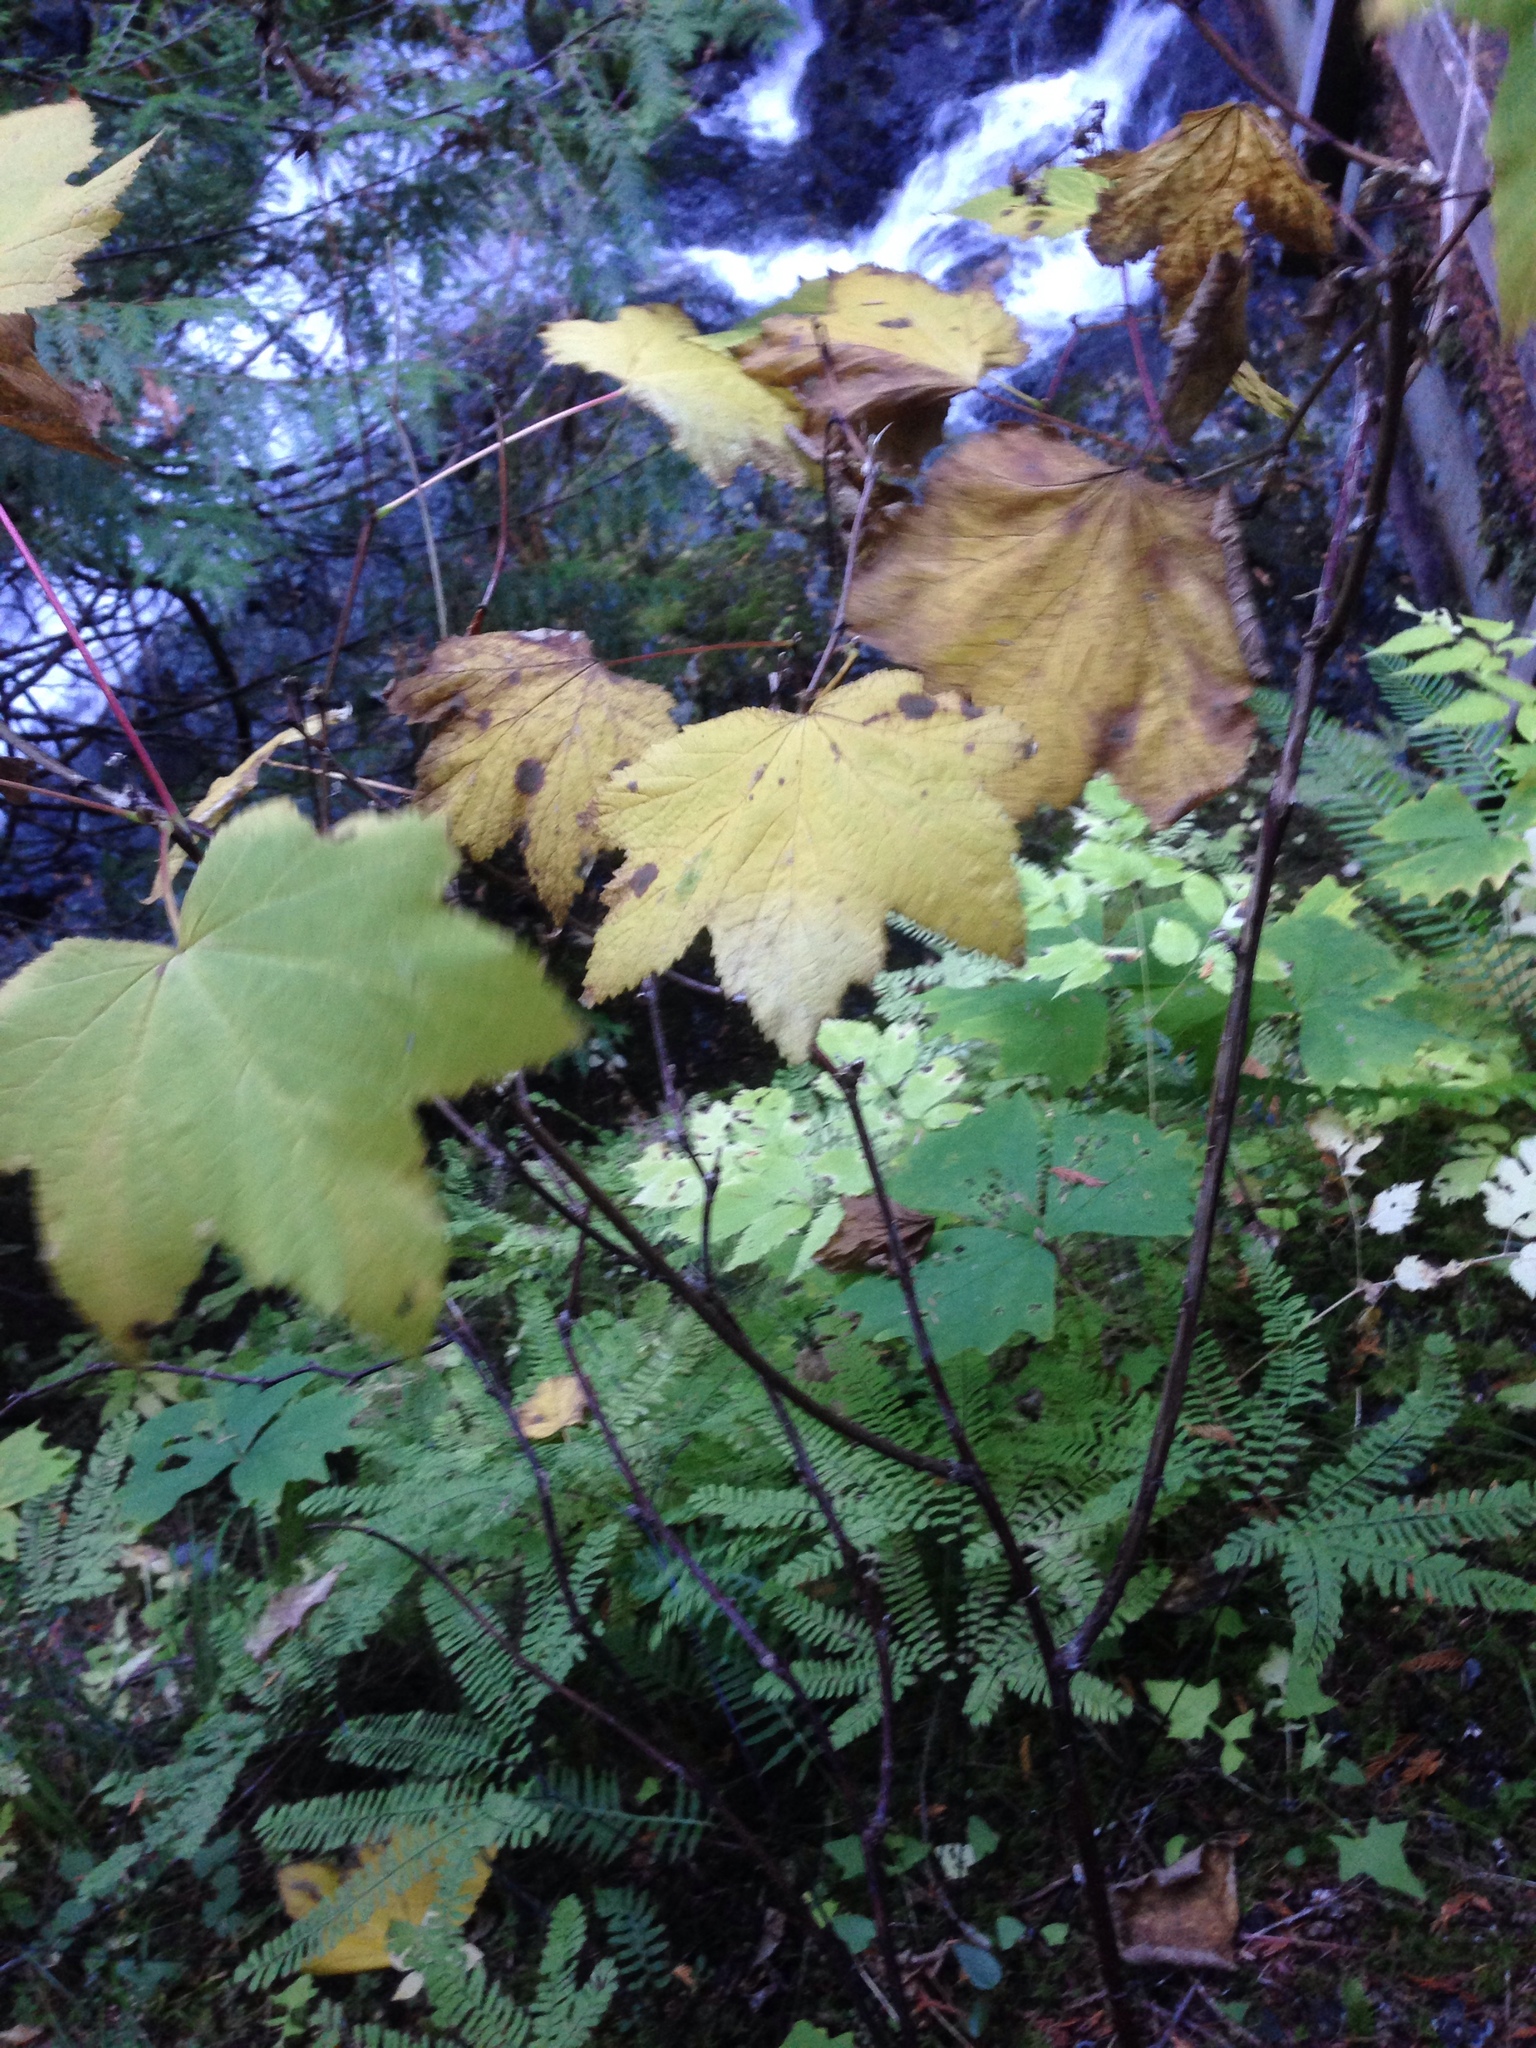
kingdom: Plantae
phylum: Tracheophyta
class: Magnoliopsida
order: Rosales
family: Rosaceae
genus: Rubus
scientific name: Rubus parviflorus
